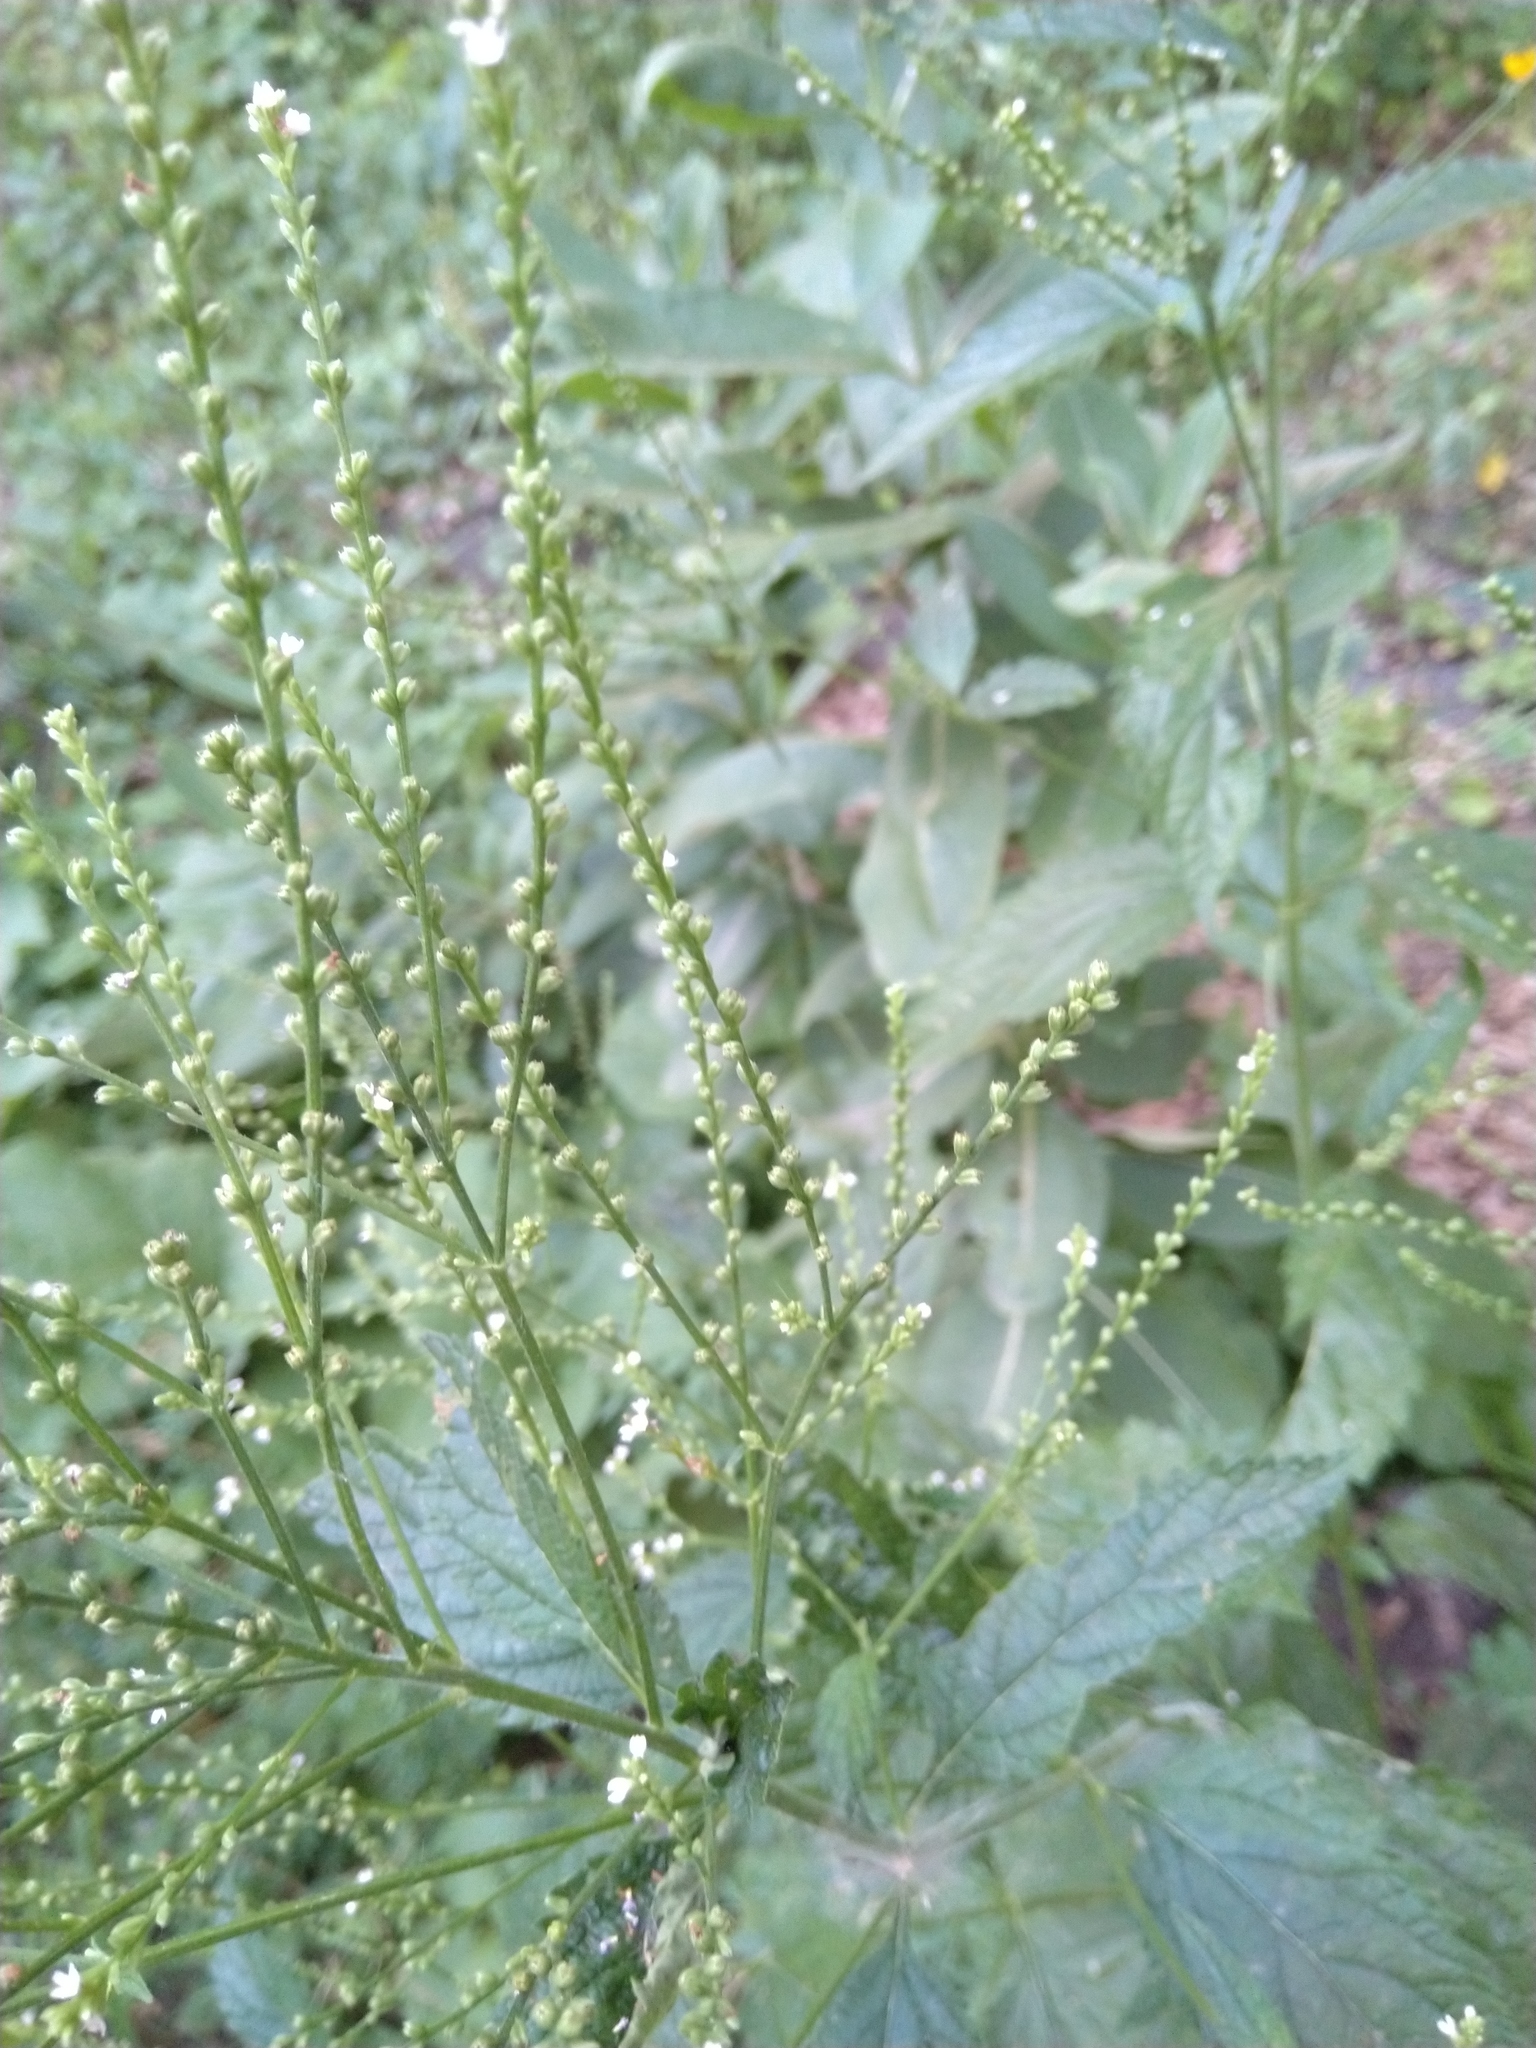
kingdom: Plantae
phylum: Tracheophyta
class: Magnoliopsida
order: Lamiales
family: Verbenaceae
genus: Verbena
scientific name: Verbena urticifolia
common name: Nettle-leaved vervain
